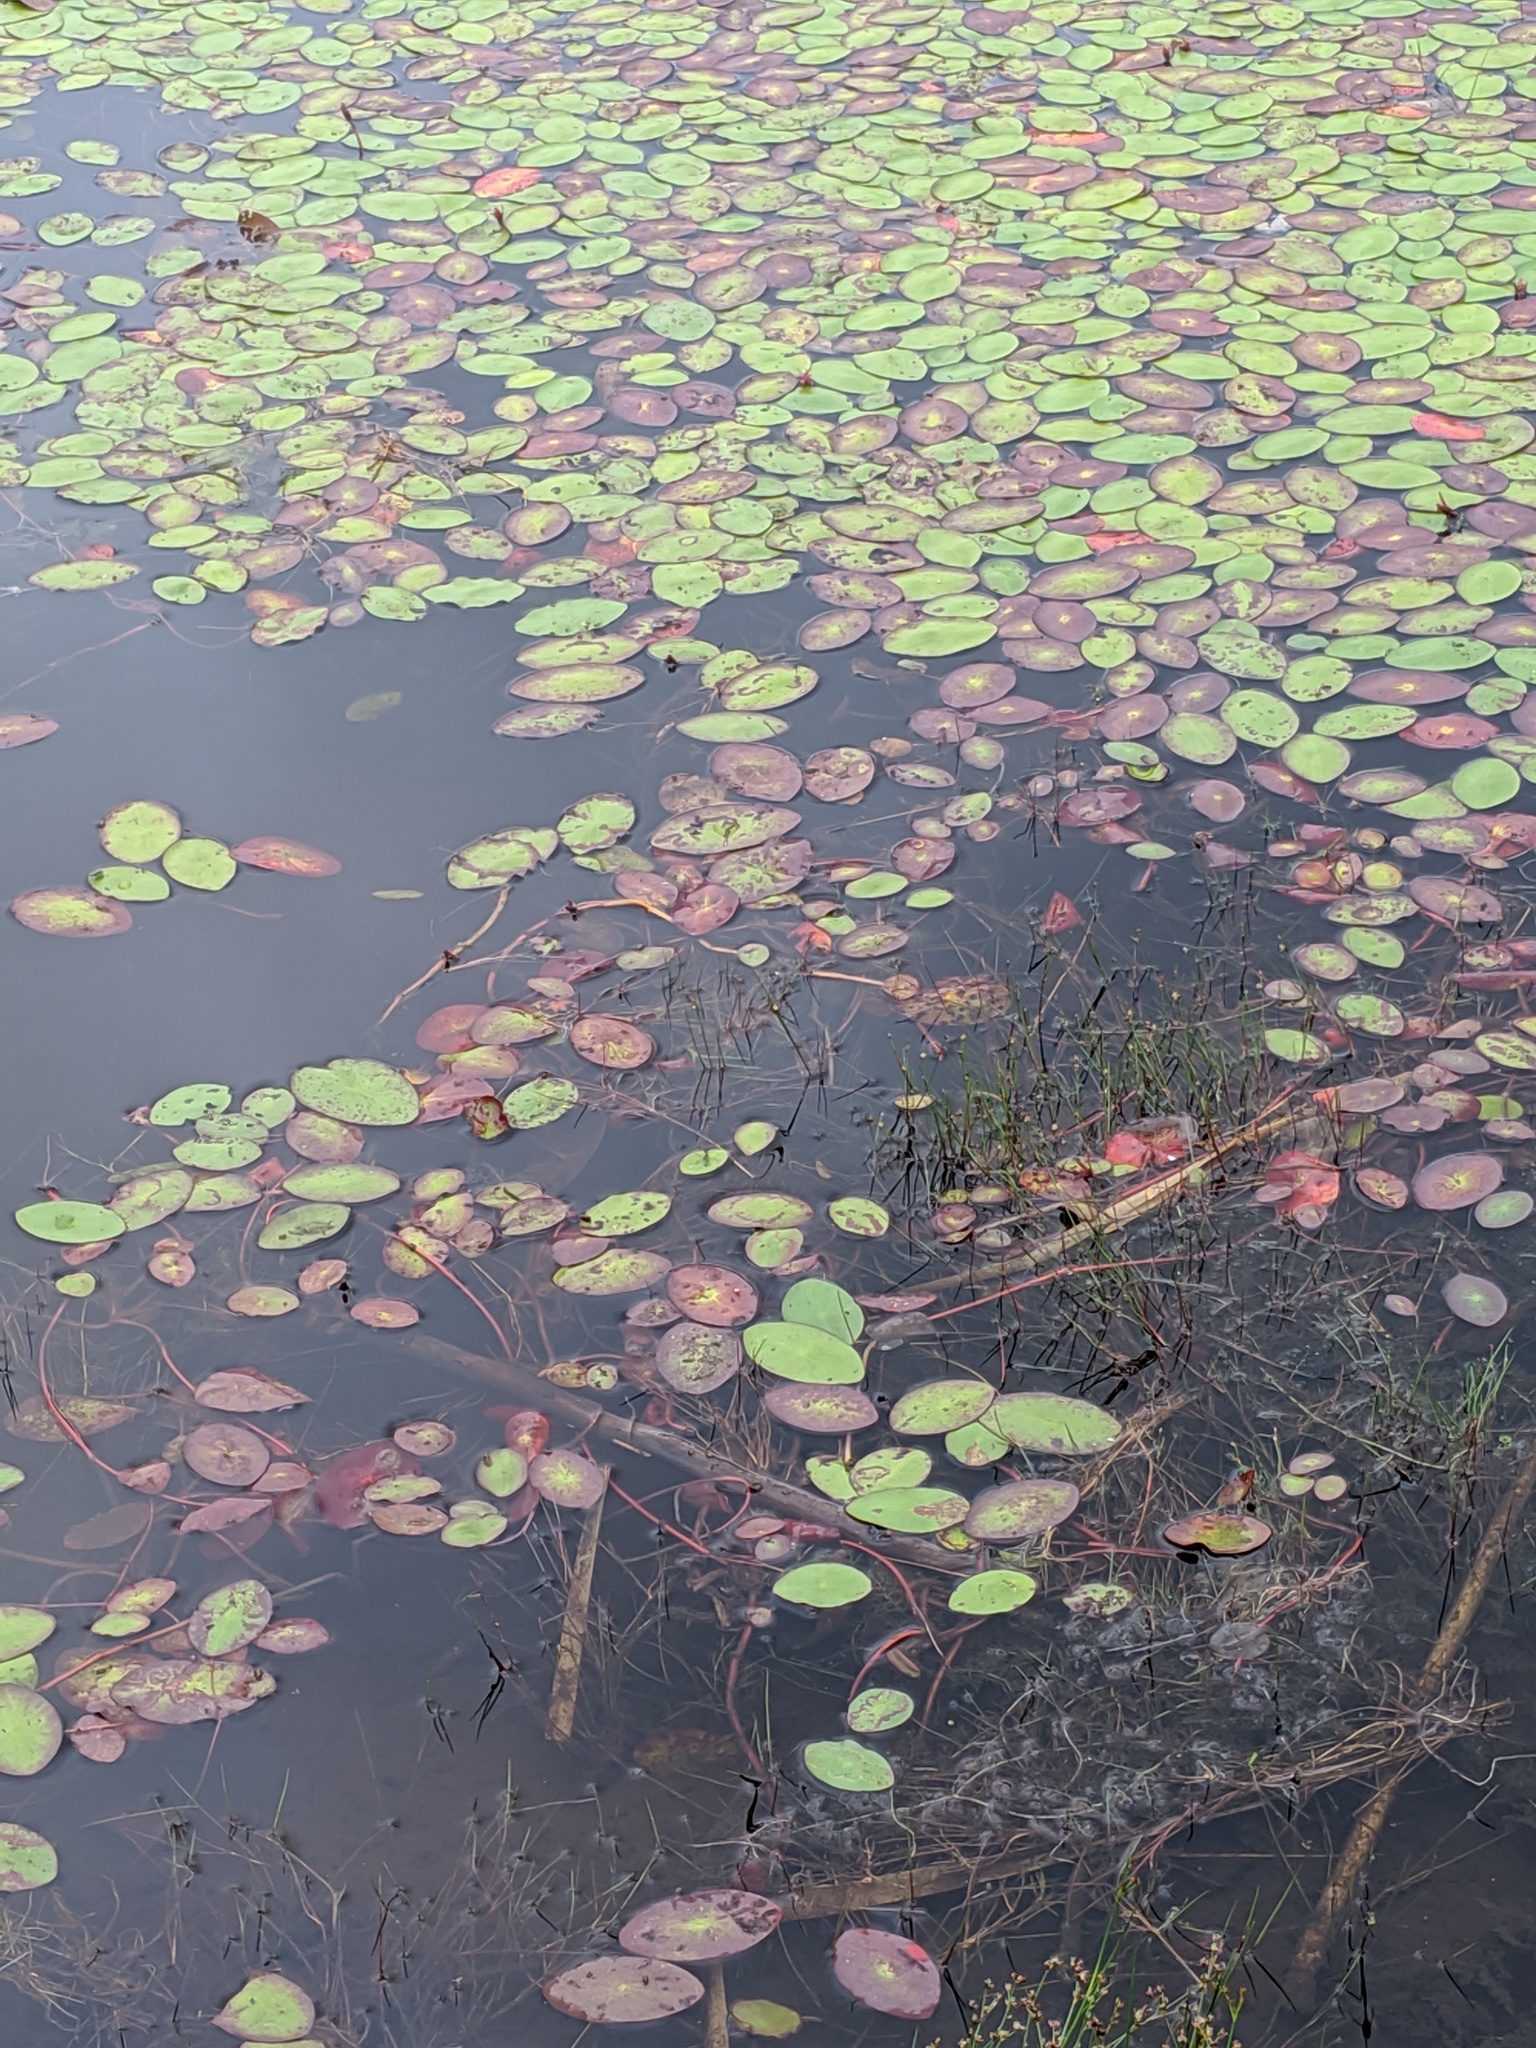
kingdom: Plantae
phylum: Tracheophyta
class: Magnoliopsida
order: Nymphaeales
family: Cabombaceae
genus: Brasenia
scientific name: Brasenia schreberi
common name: Water-shield
